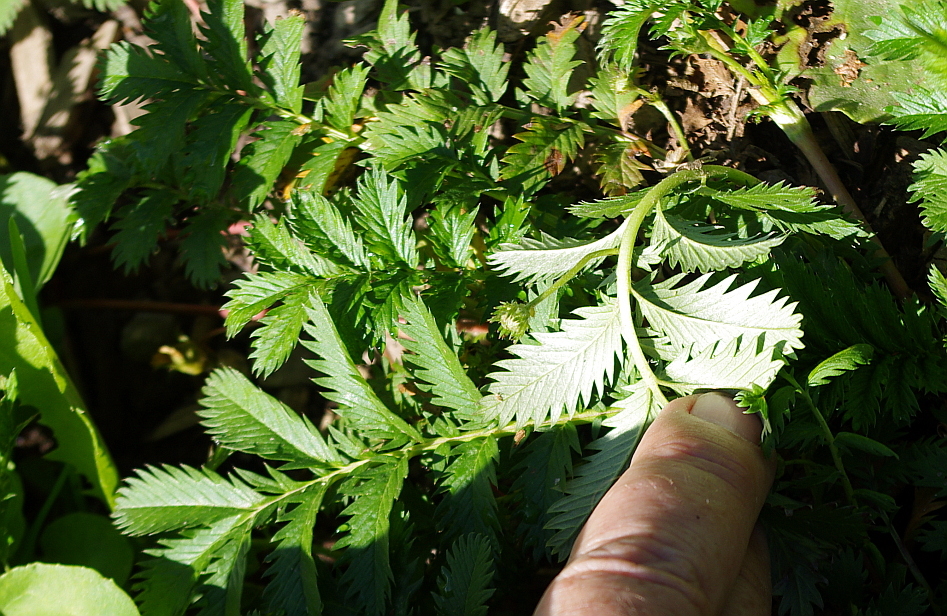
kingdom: Plantae
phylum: Tracheophyta
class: Magnoliopsida
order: Rosales
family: Rosaceae
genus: Argentina
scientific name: Argentina anserina
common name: Common silverweed
